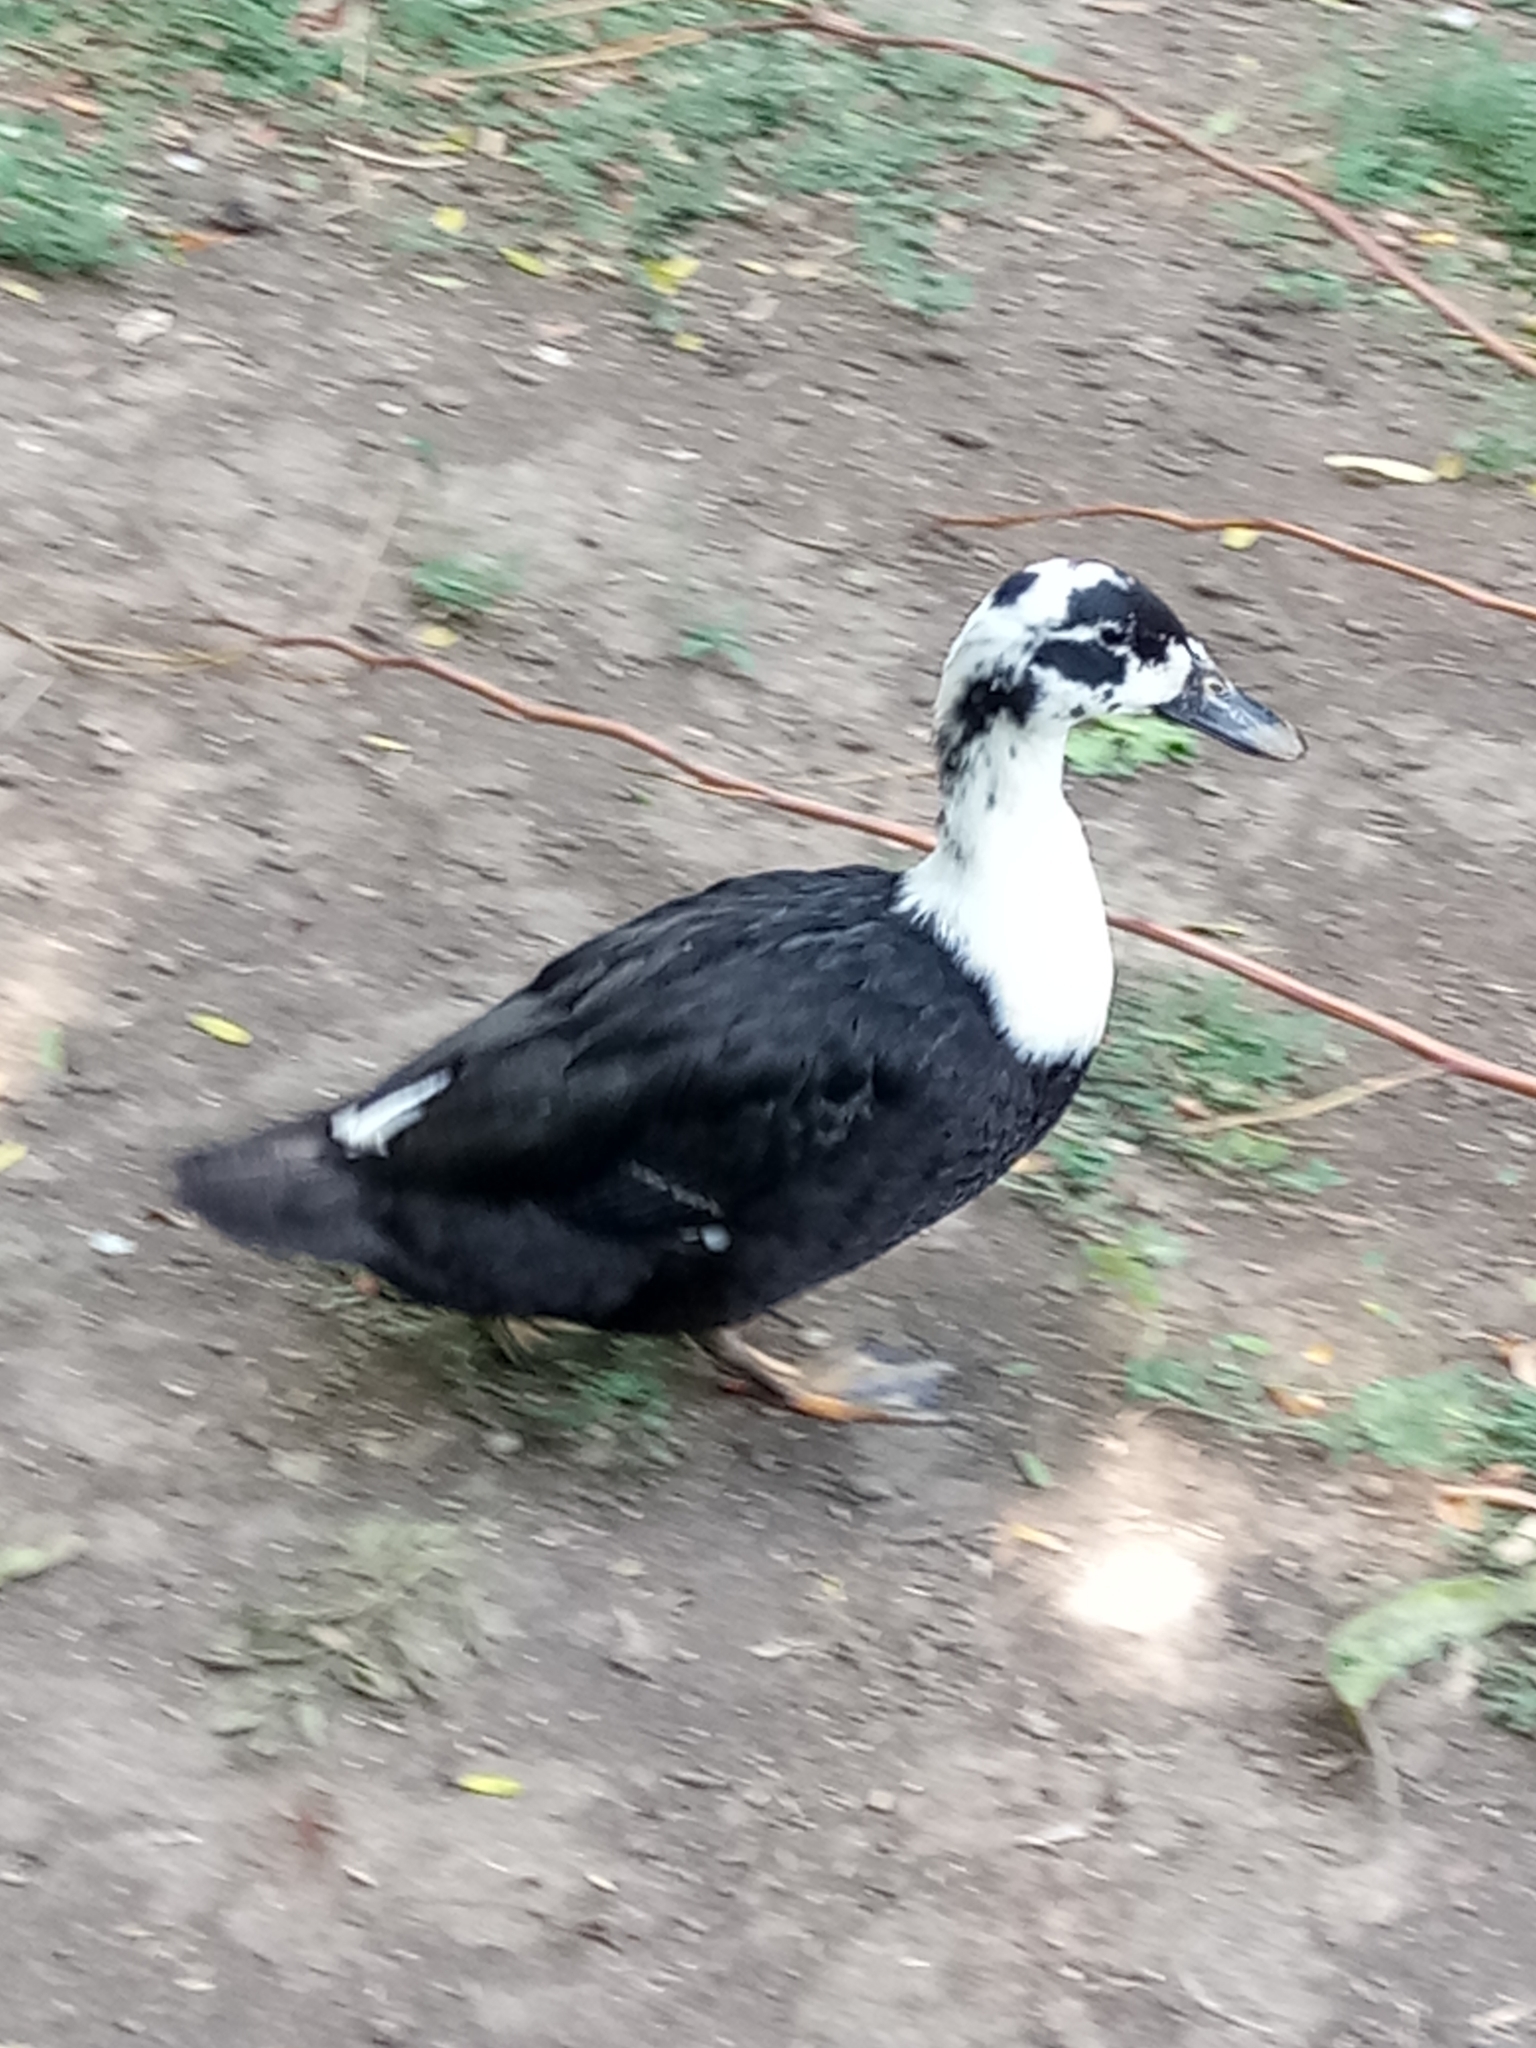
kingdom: Animalia
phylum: Chordata
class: Aves
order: Anseriformes
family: Anatidae
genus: Anas
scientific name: Anas platyrhynchos
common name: Mallard
